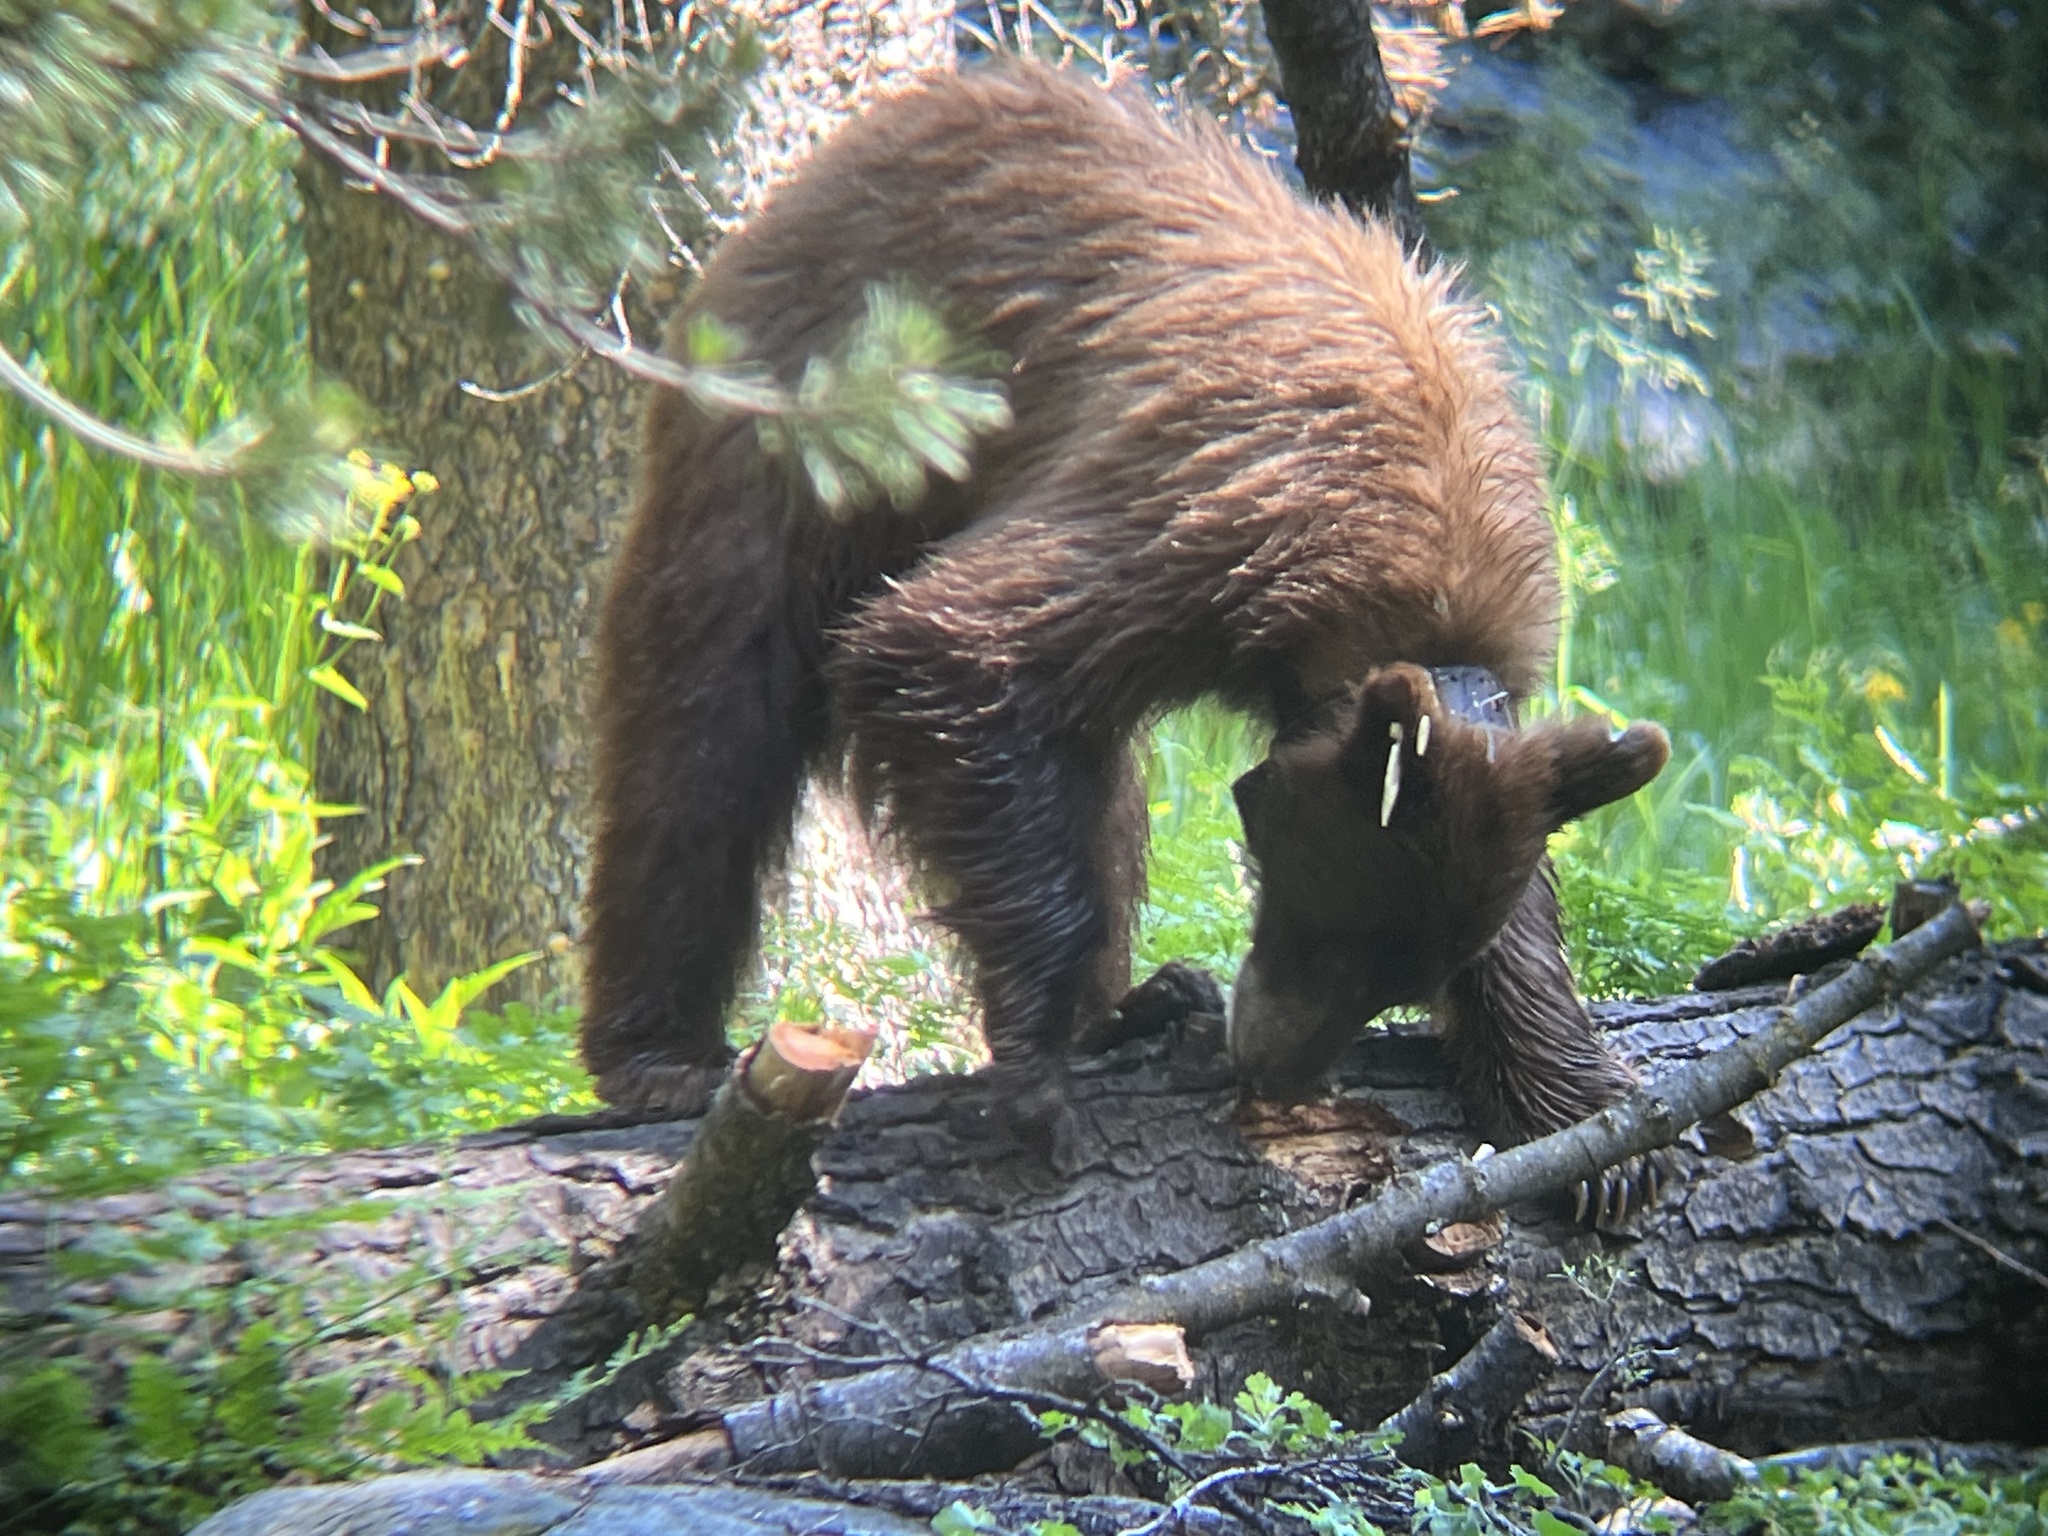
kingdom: Animalia
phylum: Chordata
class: Mammalia
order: Carnivora
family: Ursidae
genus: Ursus
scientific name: Ursus americanus
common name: American black bear
